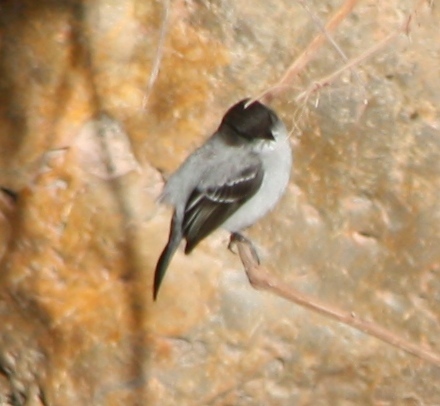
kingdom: Animalia
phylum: Chordata
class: Aves
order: Passeriformes
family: Tyrannidae
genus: Serpophaga
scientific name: Serpophaga cinerea
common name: Torrent tyrannulet
